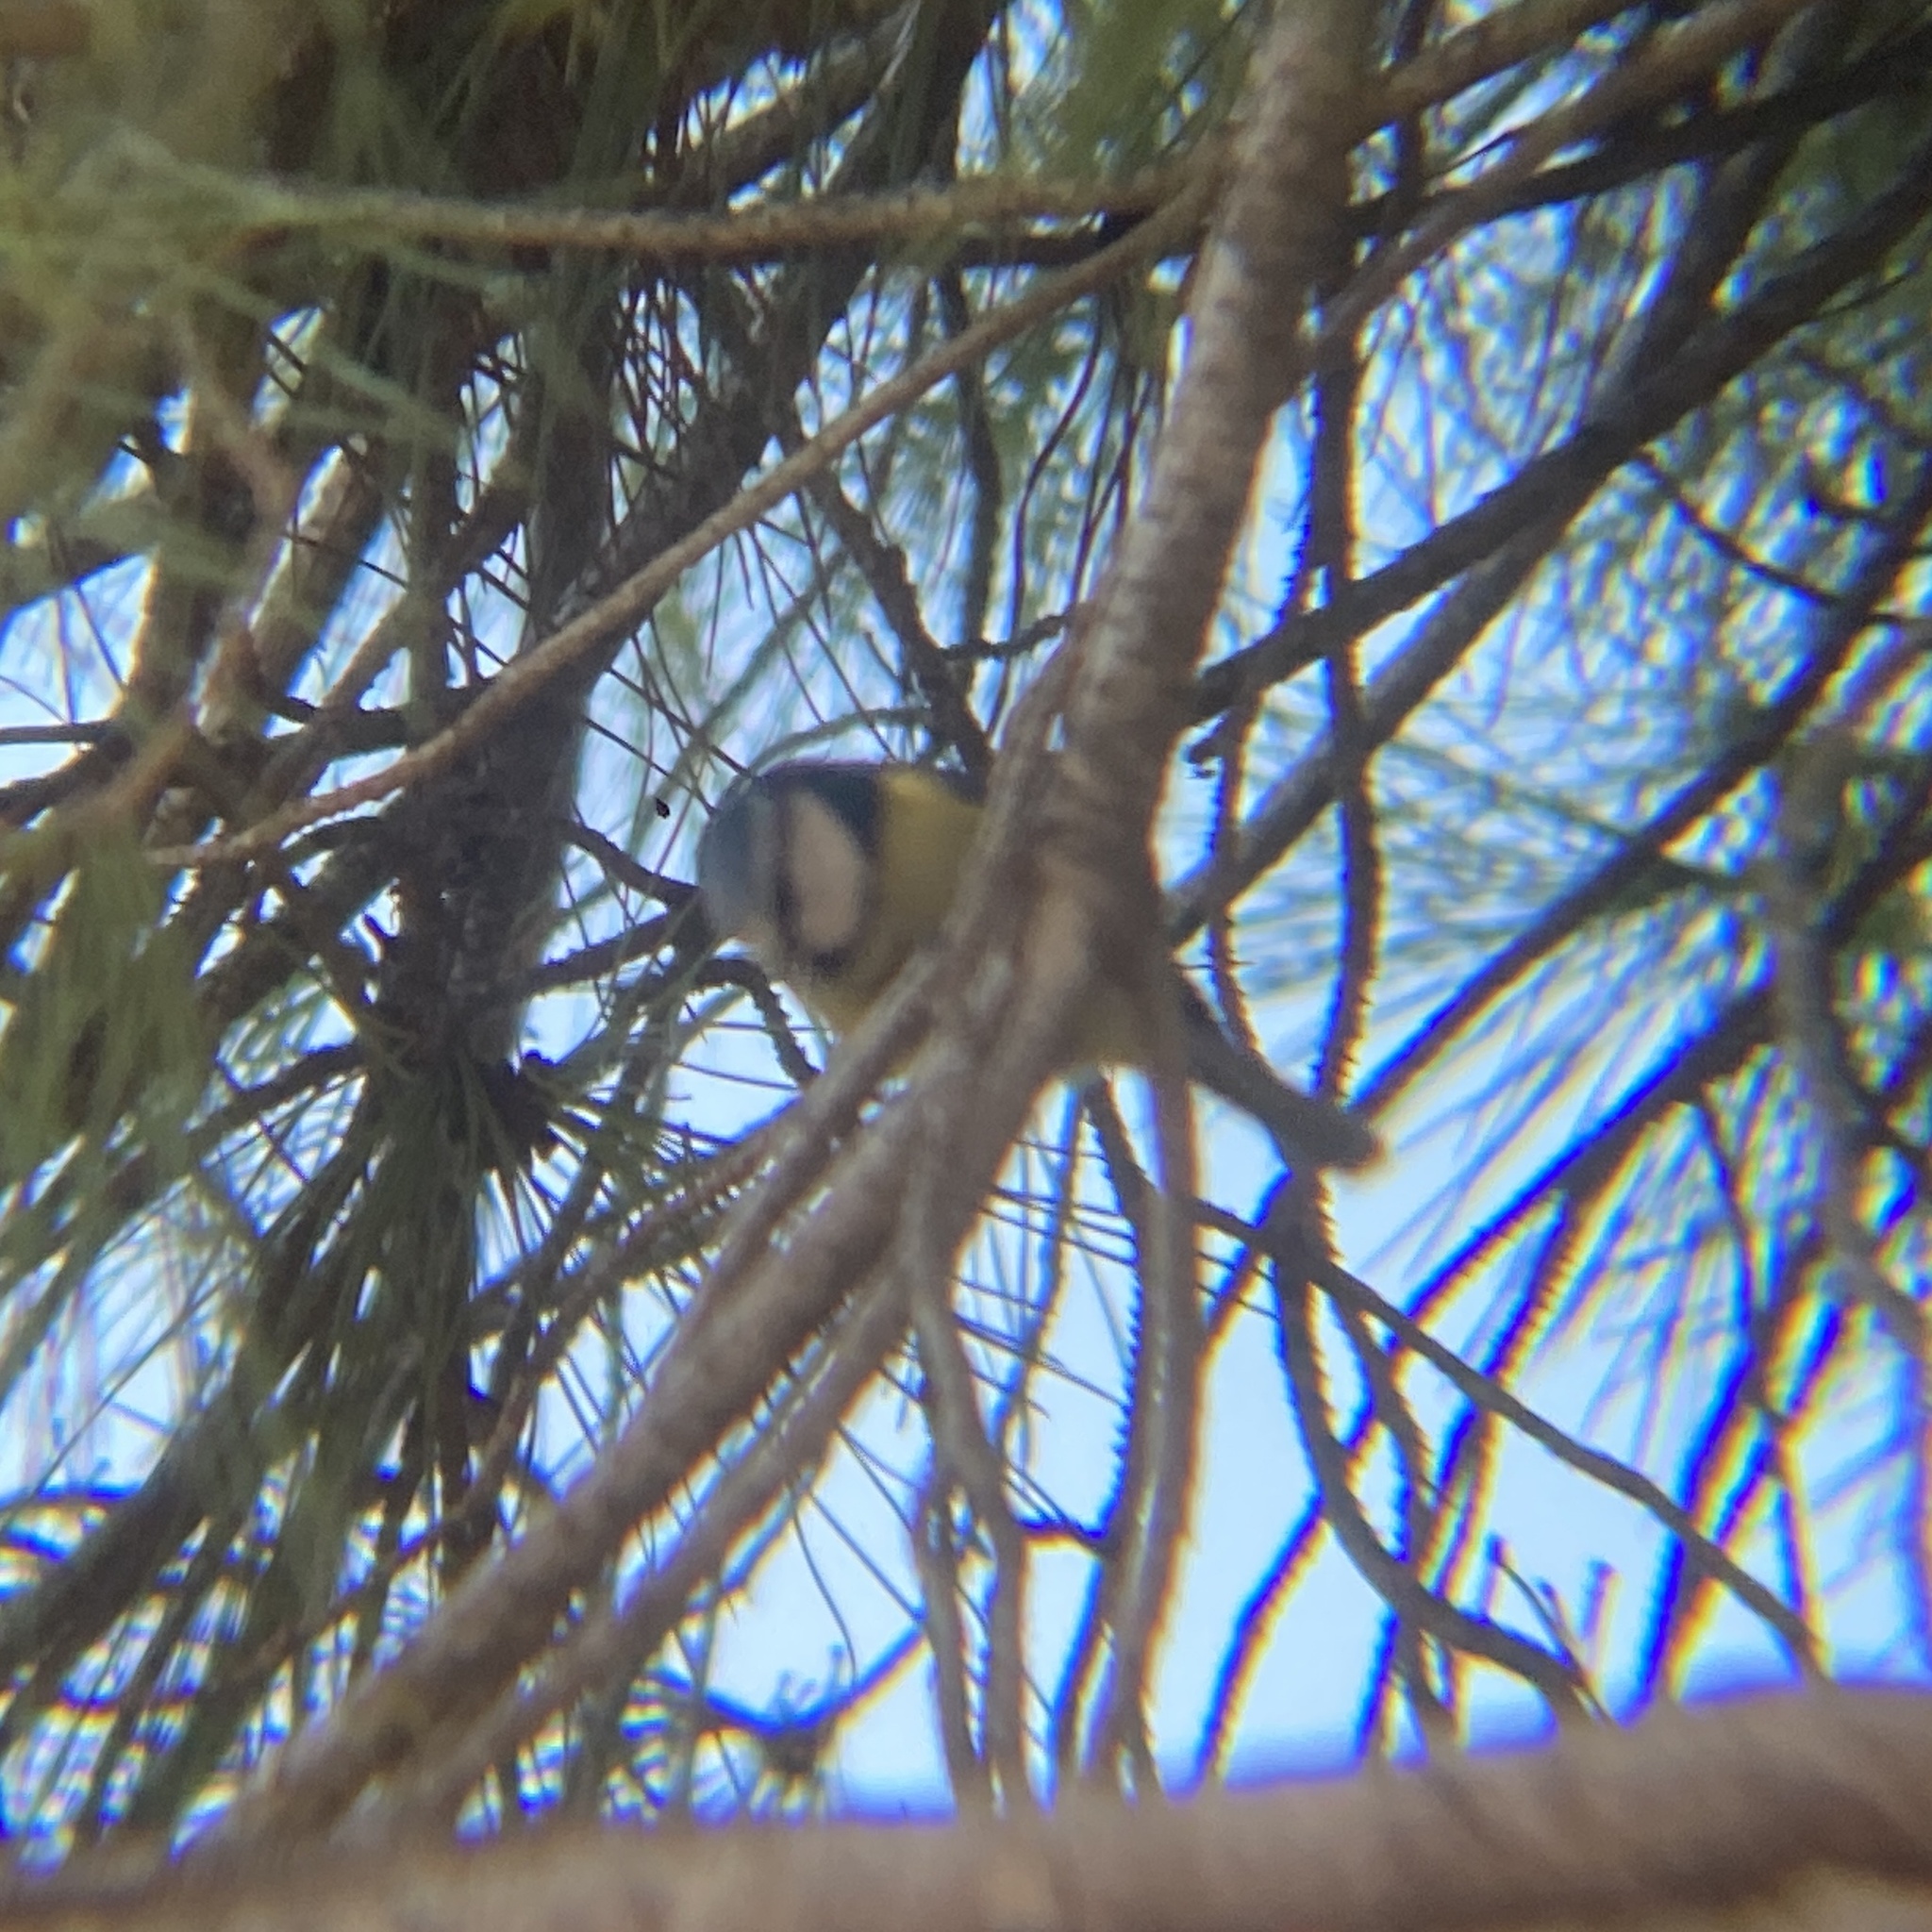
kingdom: Animalia
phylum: Chordata
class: Aves
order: Passeriformes
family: Paridae
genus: Cyanistes
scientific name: Cyanistes caeruleus
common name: Eurasian blue tit
